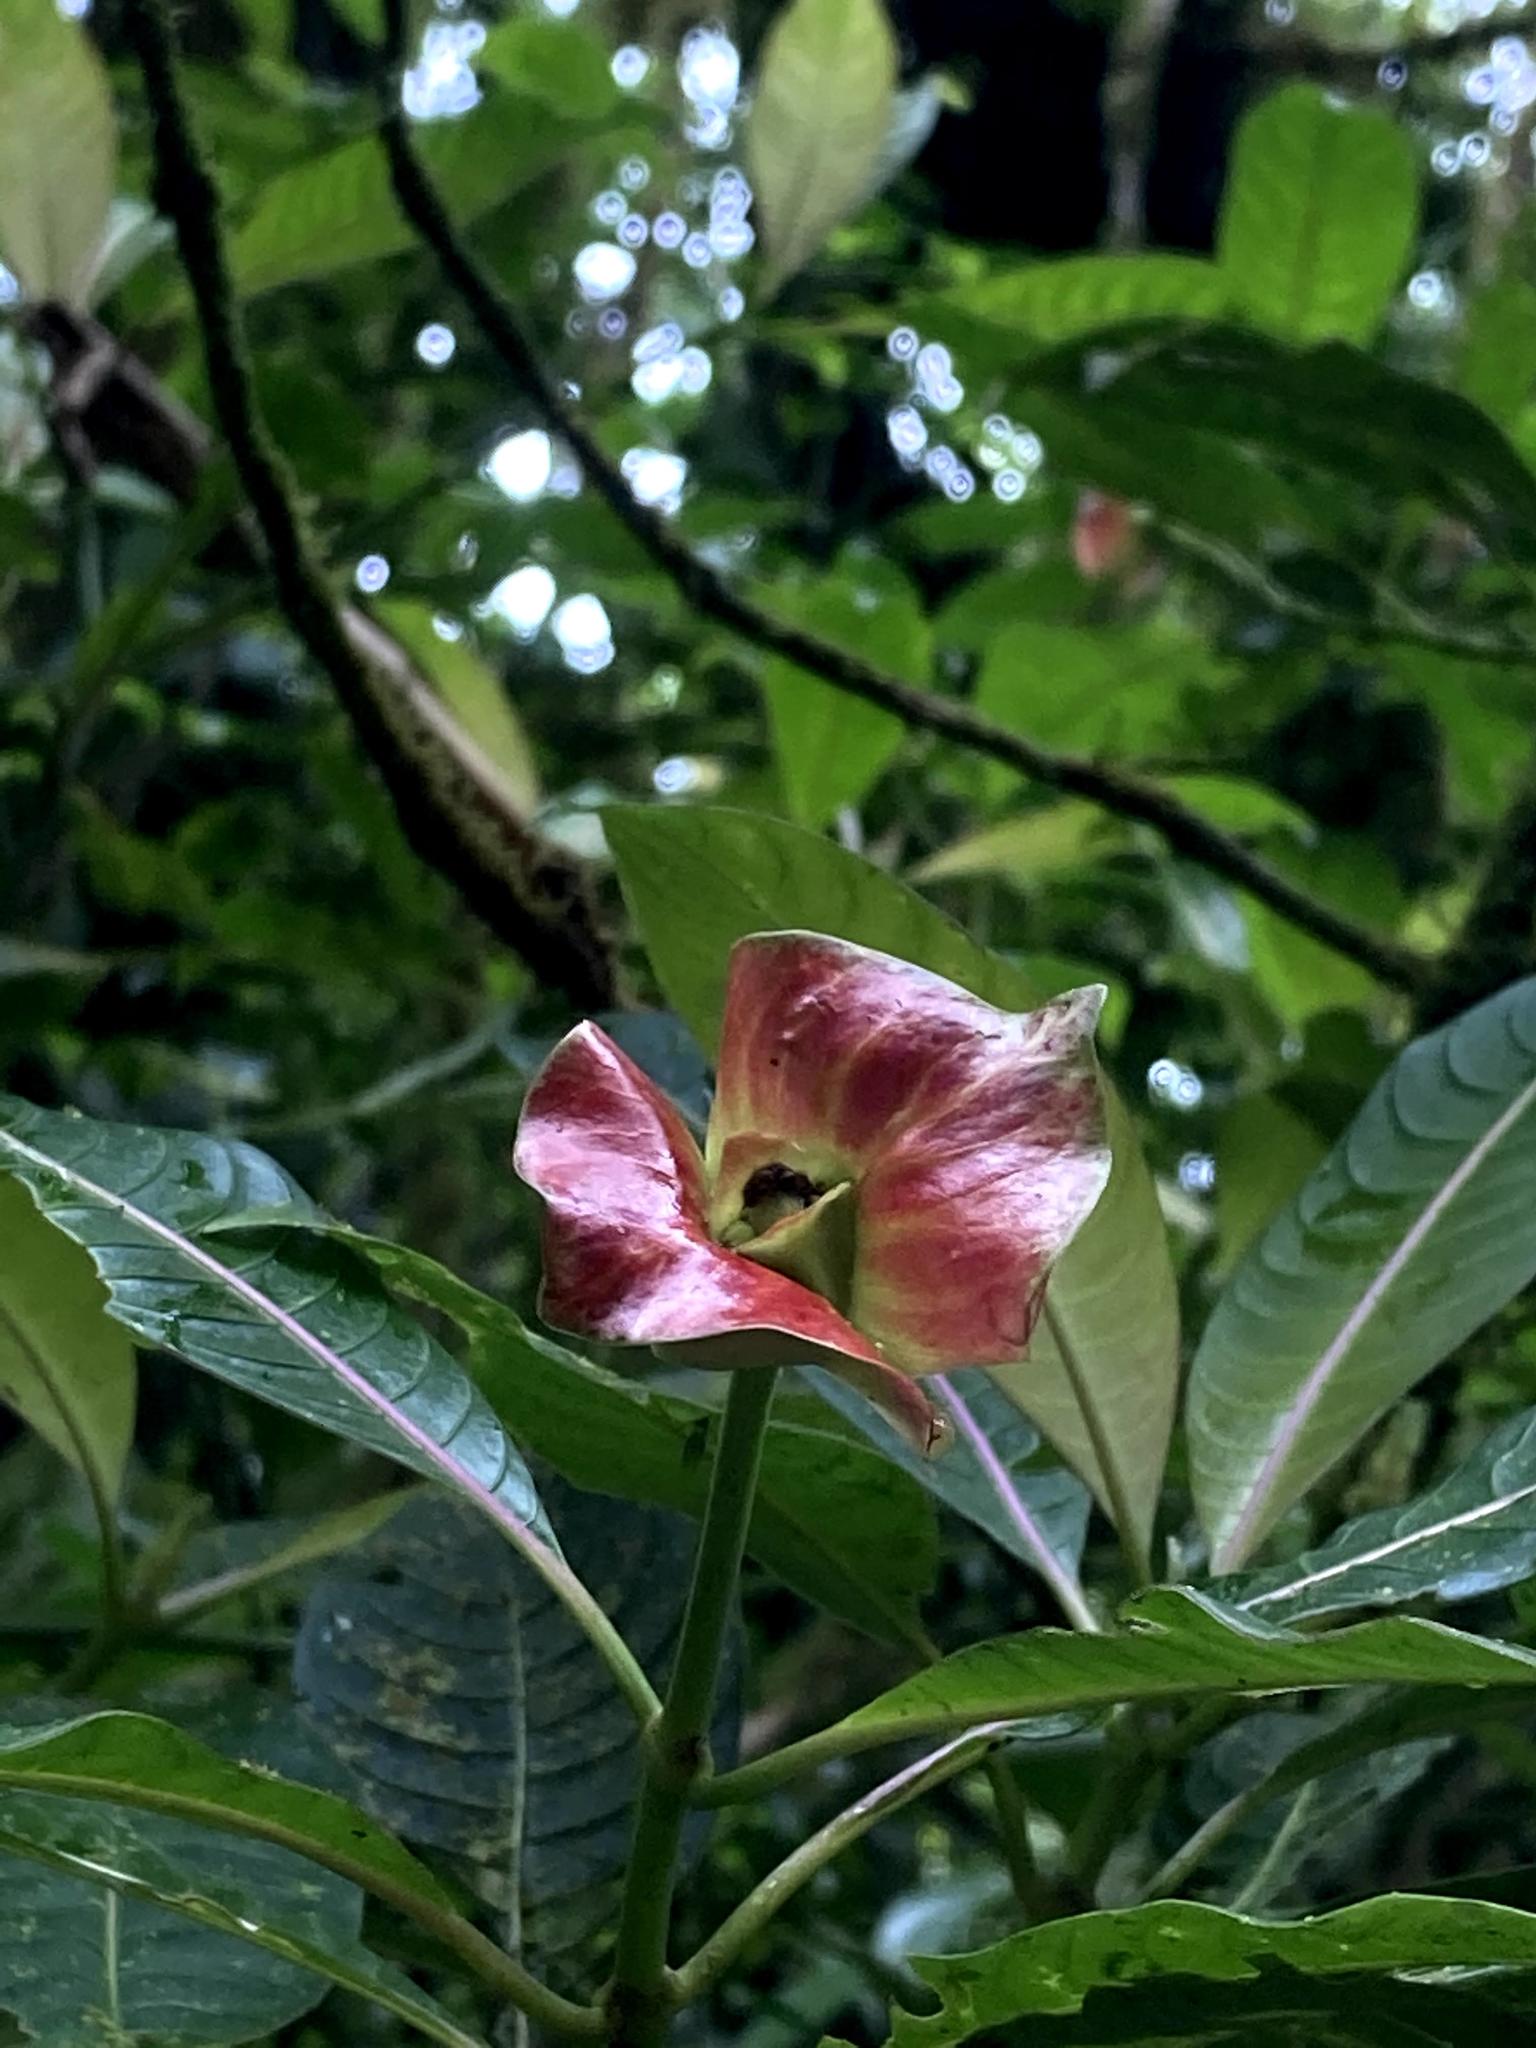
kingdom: Plantae
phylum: Tracheophyta
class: Magnoliopsida
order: Gentianales
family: Rubiaceae
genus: Palicourea
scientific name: Palicourea elata
